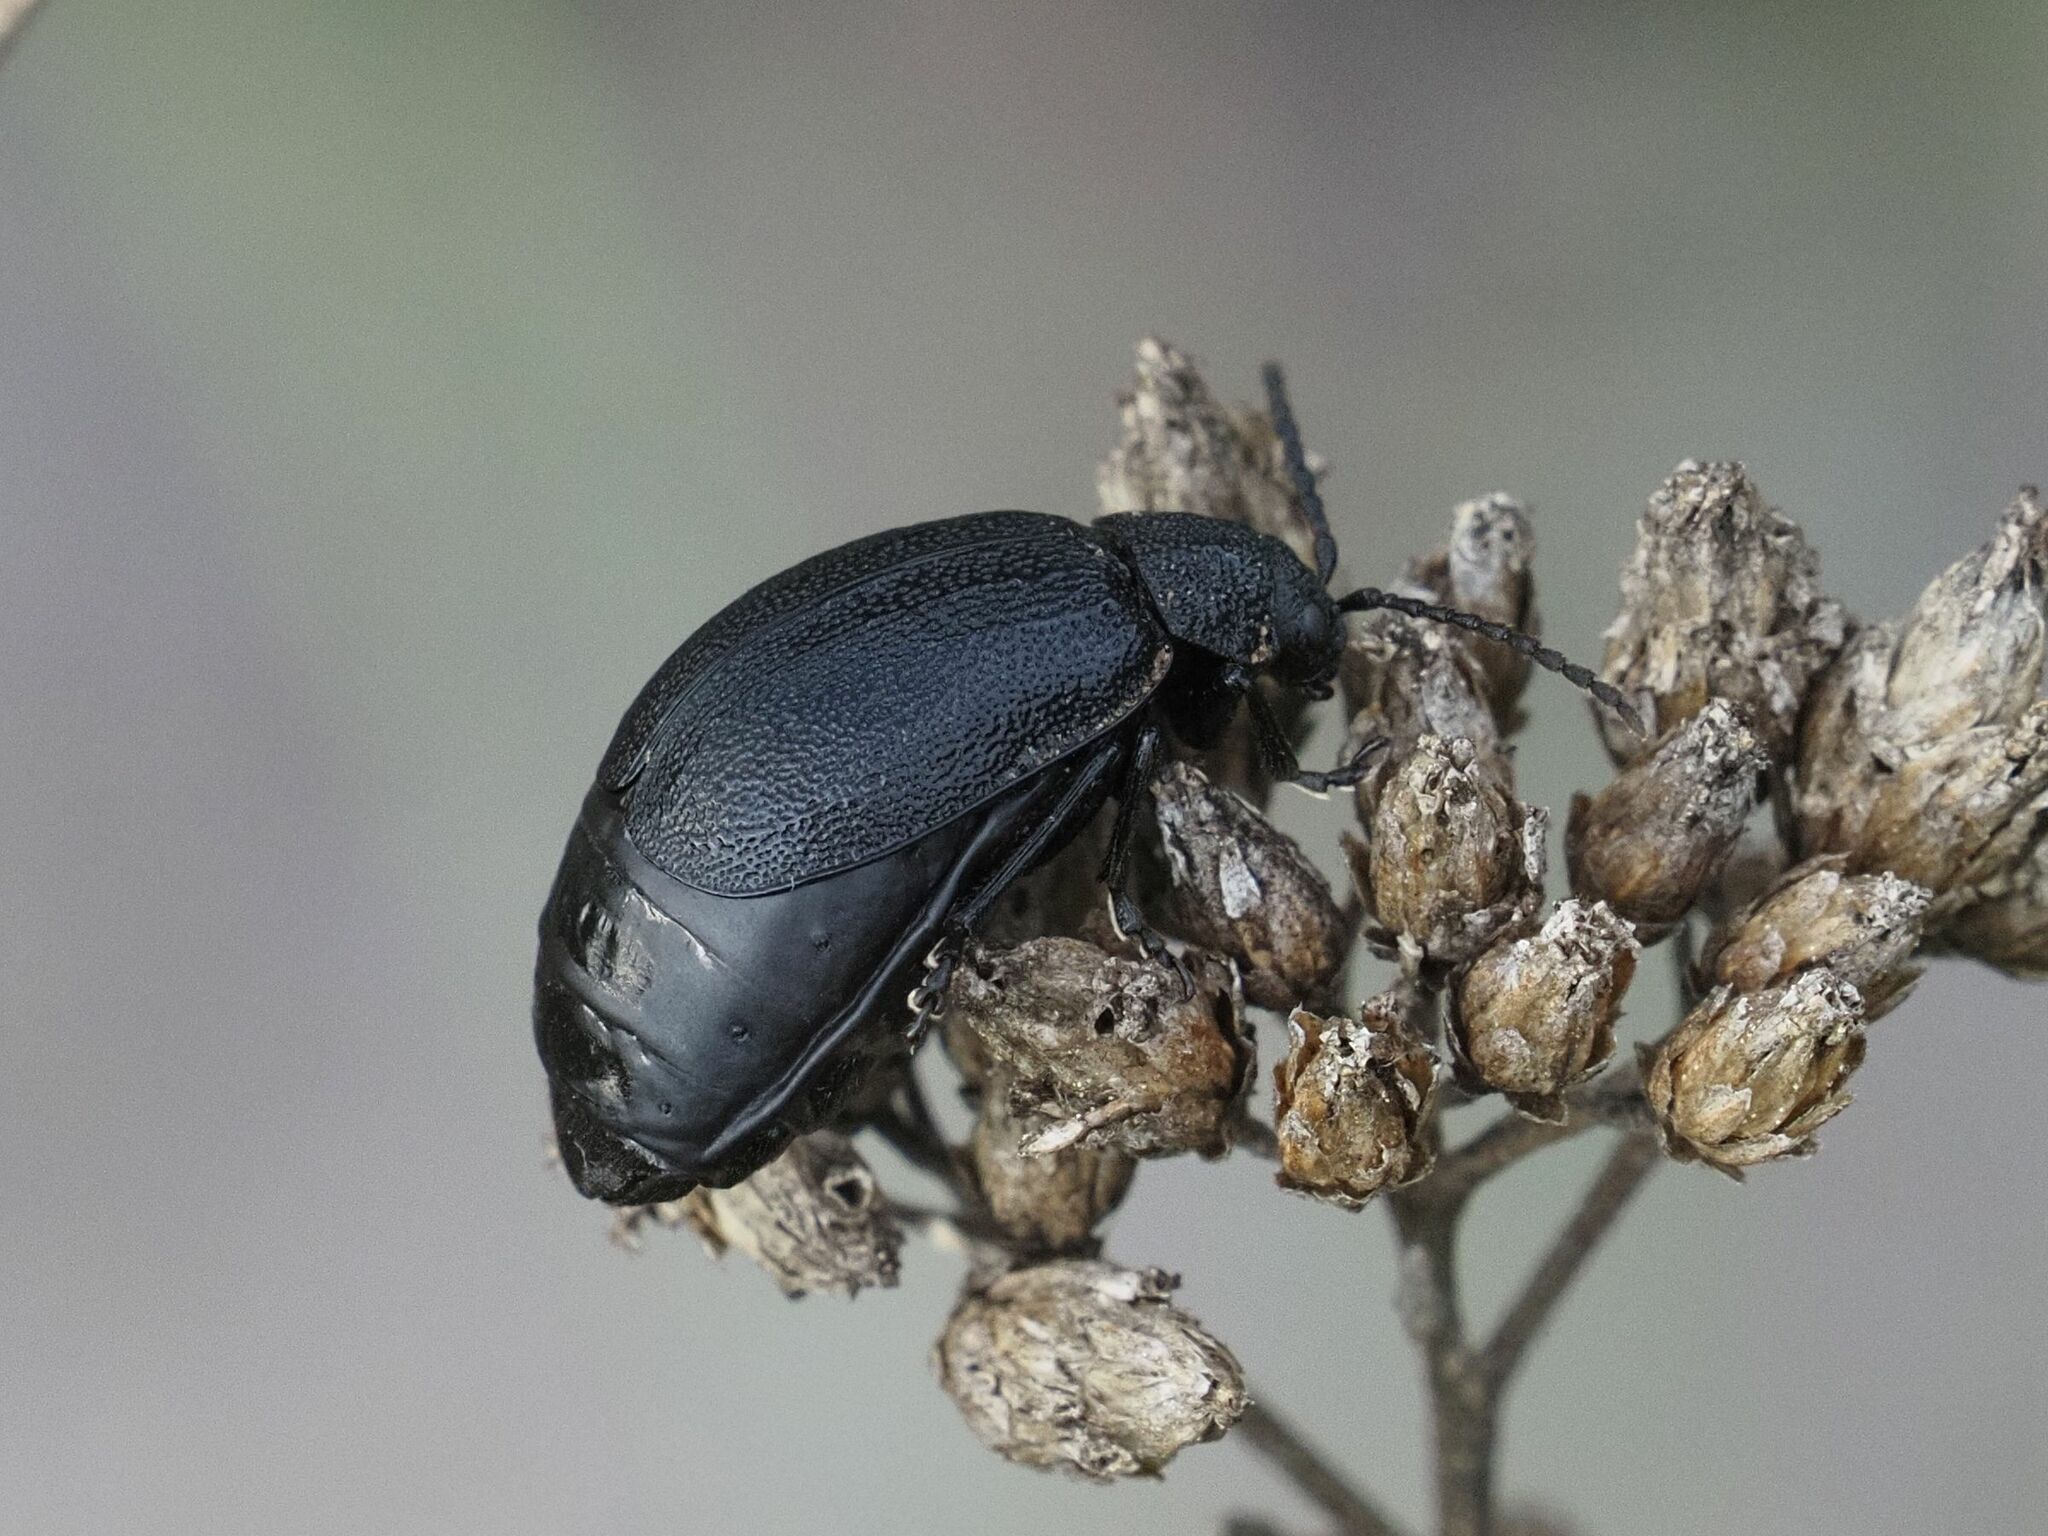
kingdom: Animalia
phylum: Arthropoda
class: Insecta
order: Coleoptera
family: Chrysomelidae
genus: Galeruca
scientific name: Galeruca tanaceti
